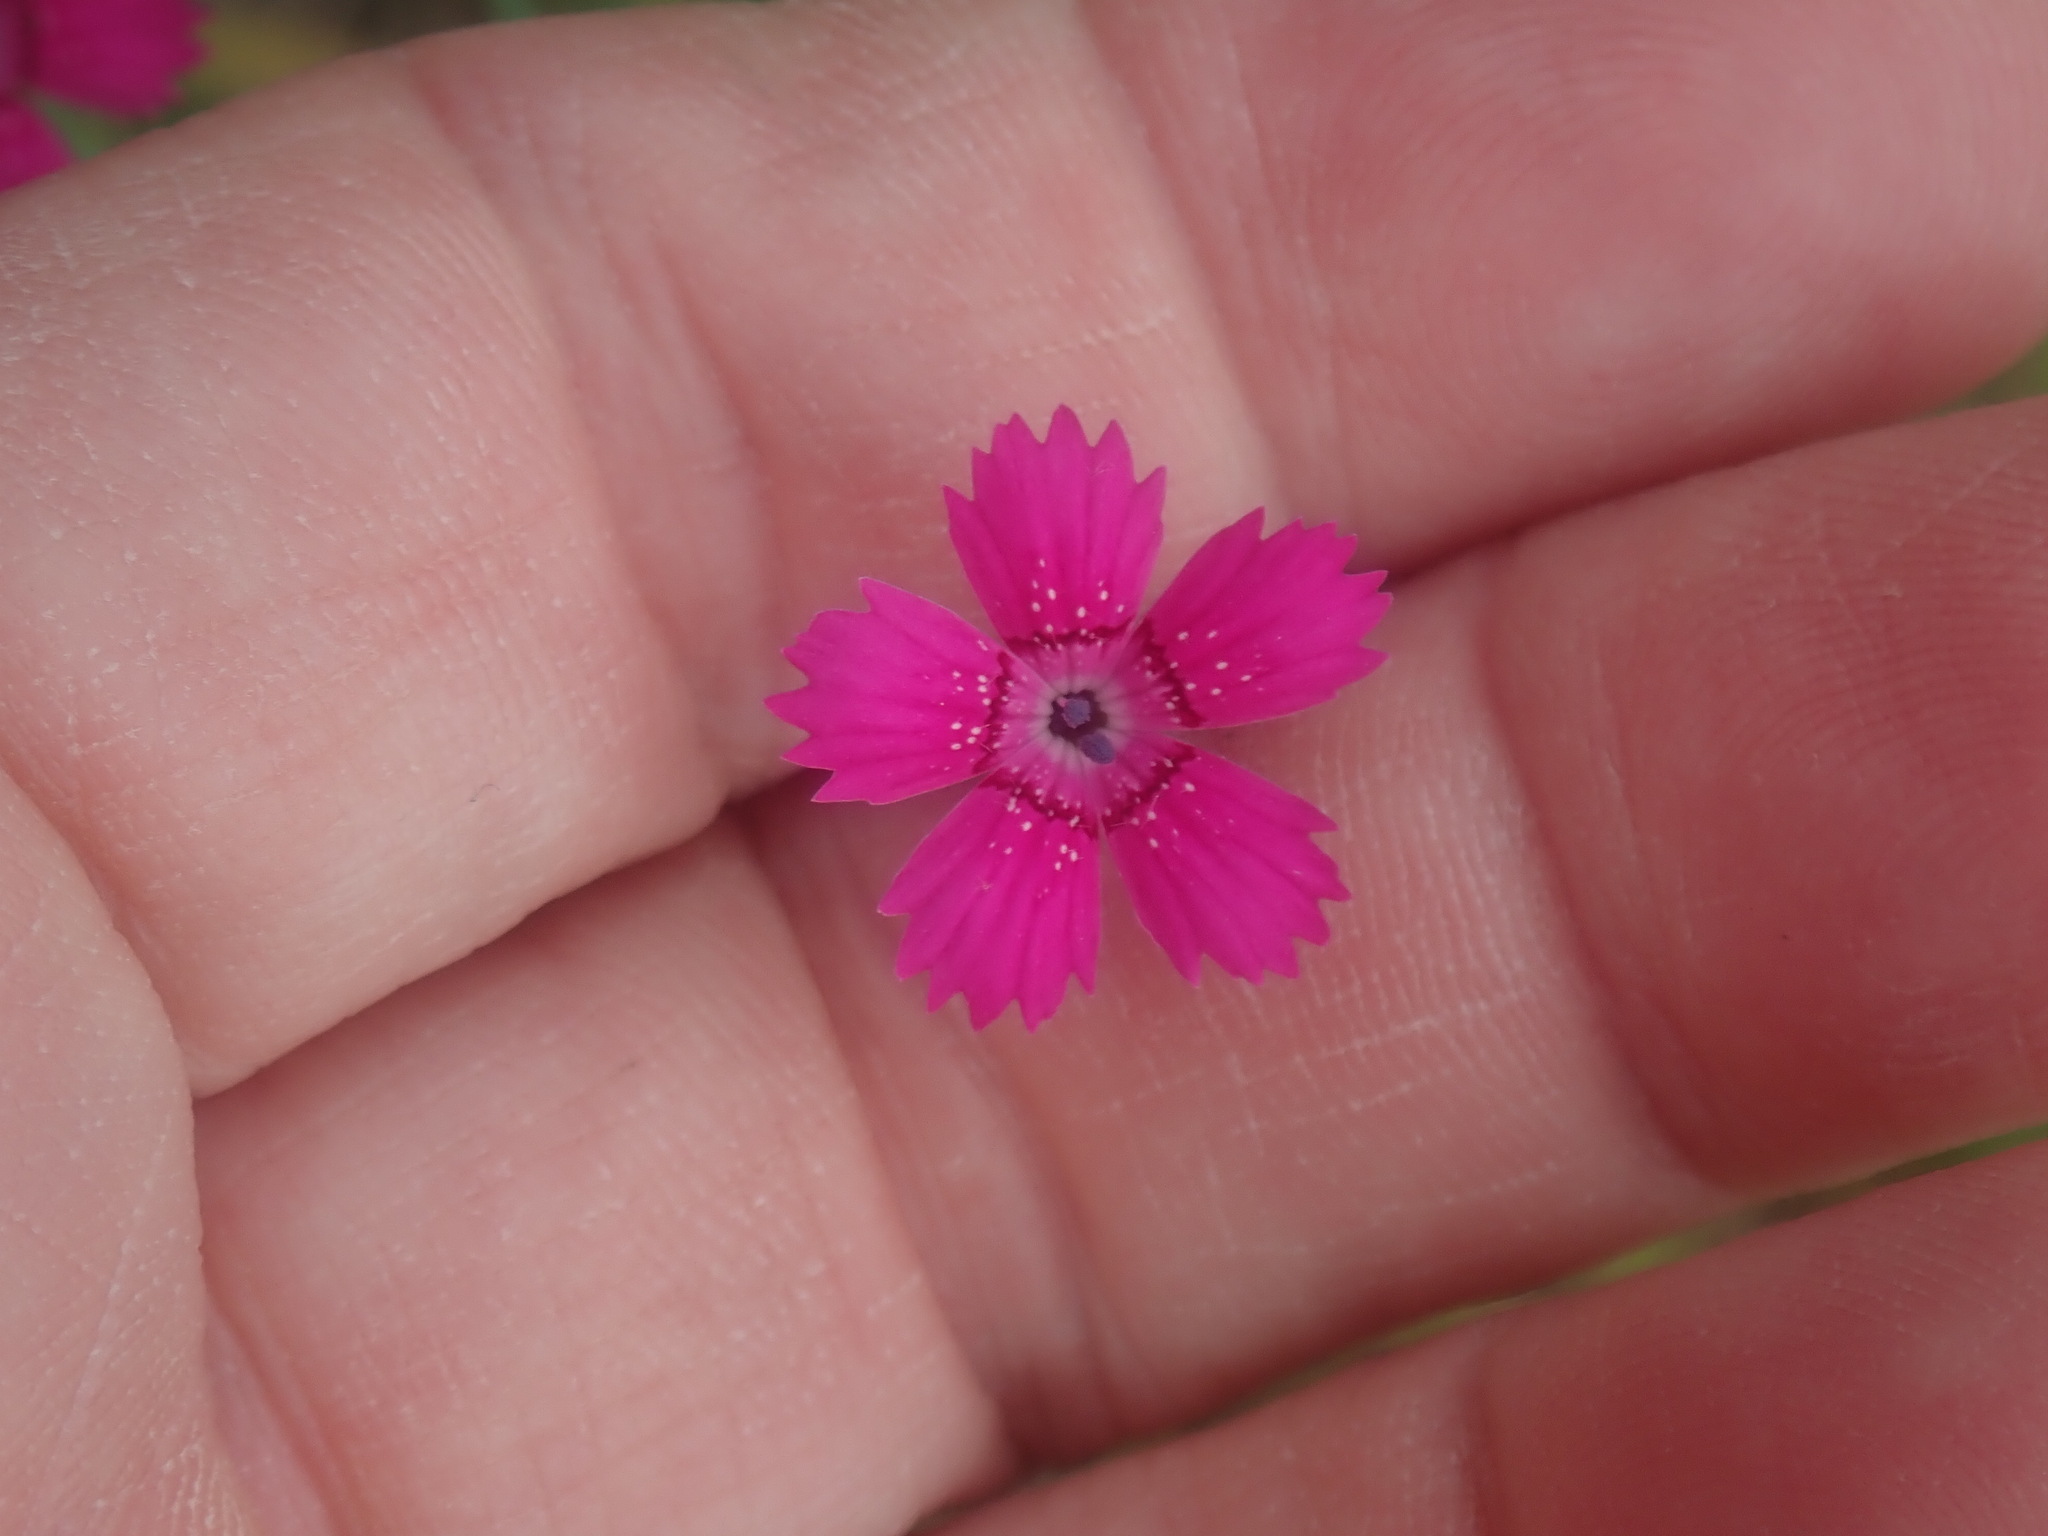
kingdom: Plantae
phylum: Tracheophyta
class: Magnoliopsida
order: Caryophyllales
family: Caryophyllaceae
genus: Dianthus
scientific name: Dianthus deltoides
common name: Maiden pink
